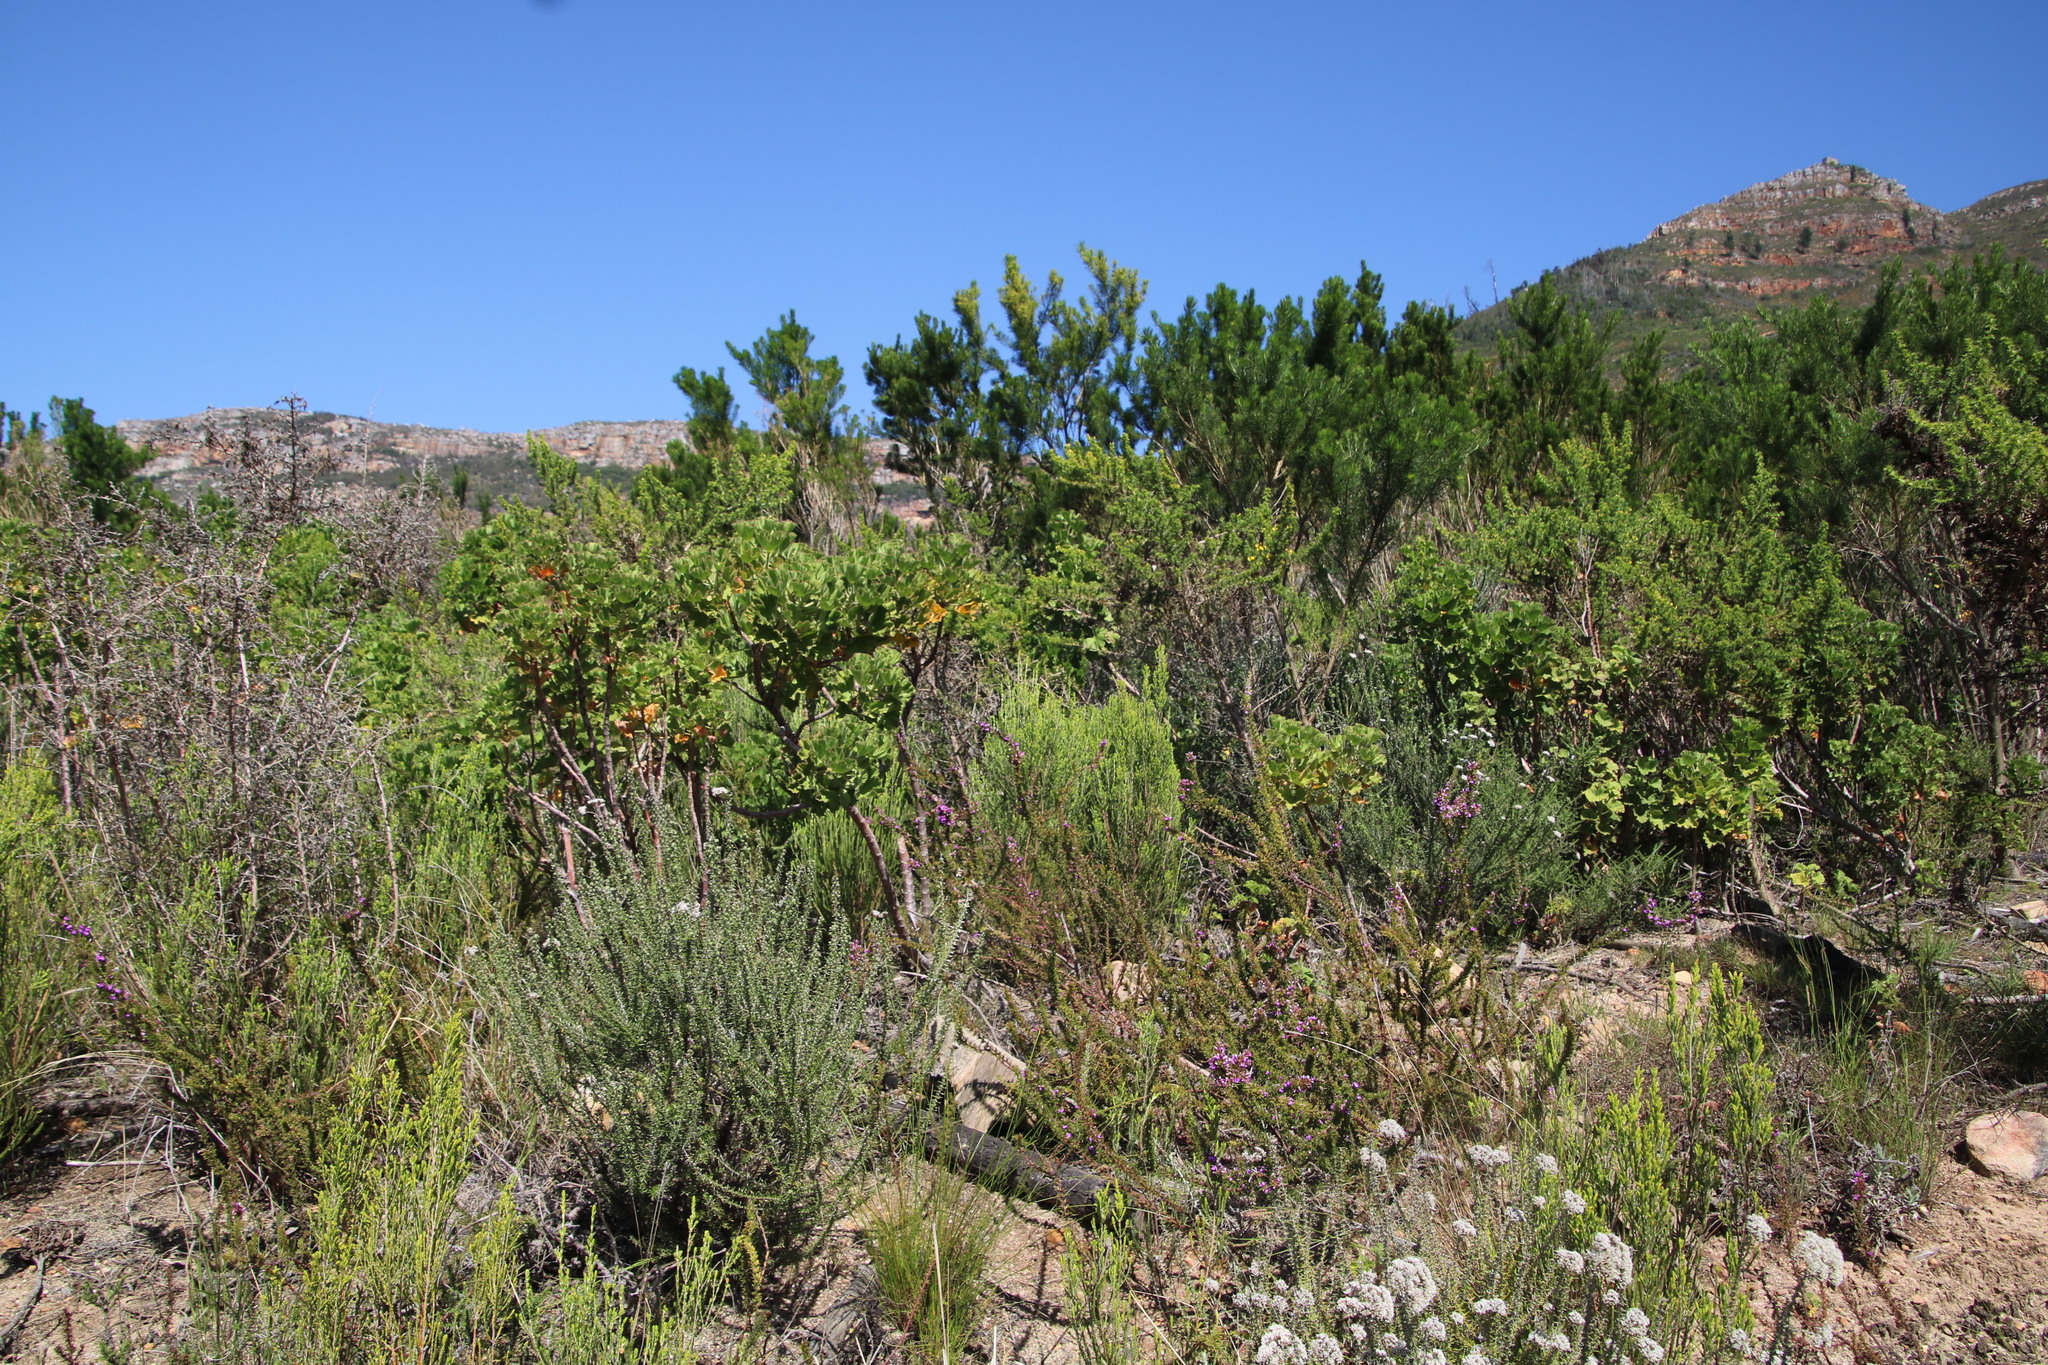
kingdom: Plantae
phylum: Tracheophyta
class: Magnoliopsida
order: Fabales
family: Fabaceae
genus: Aspalathus
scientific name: Aspalathus astroites
